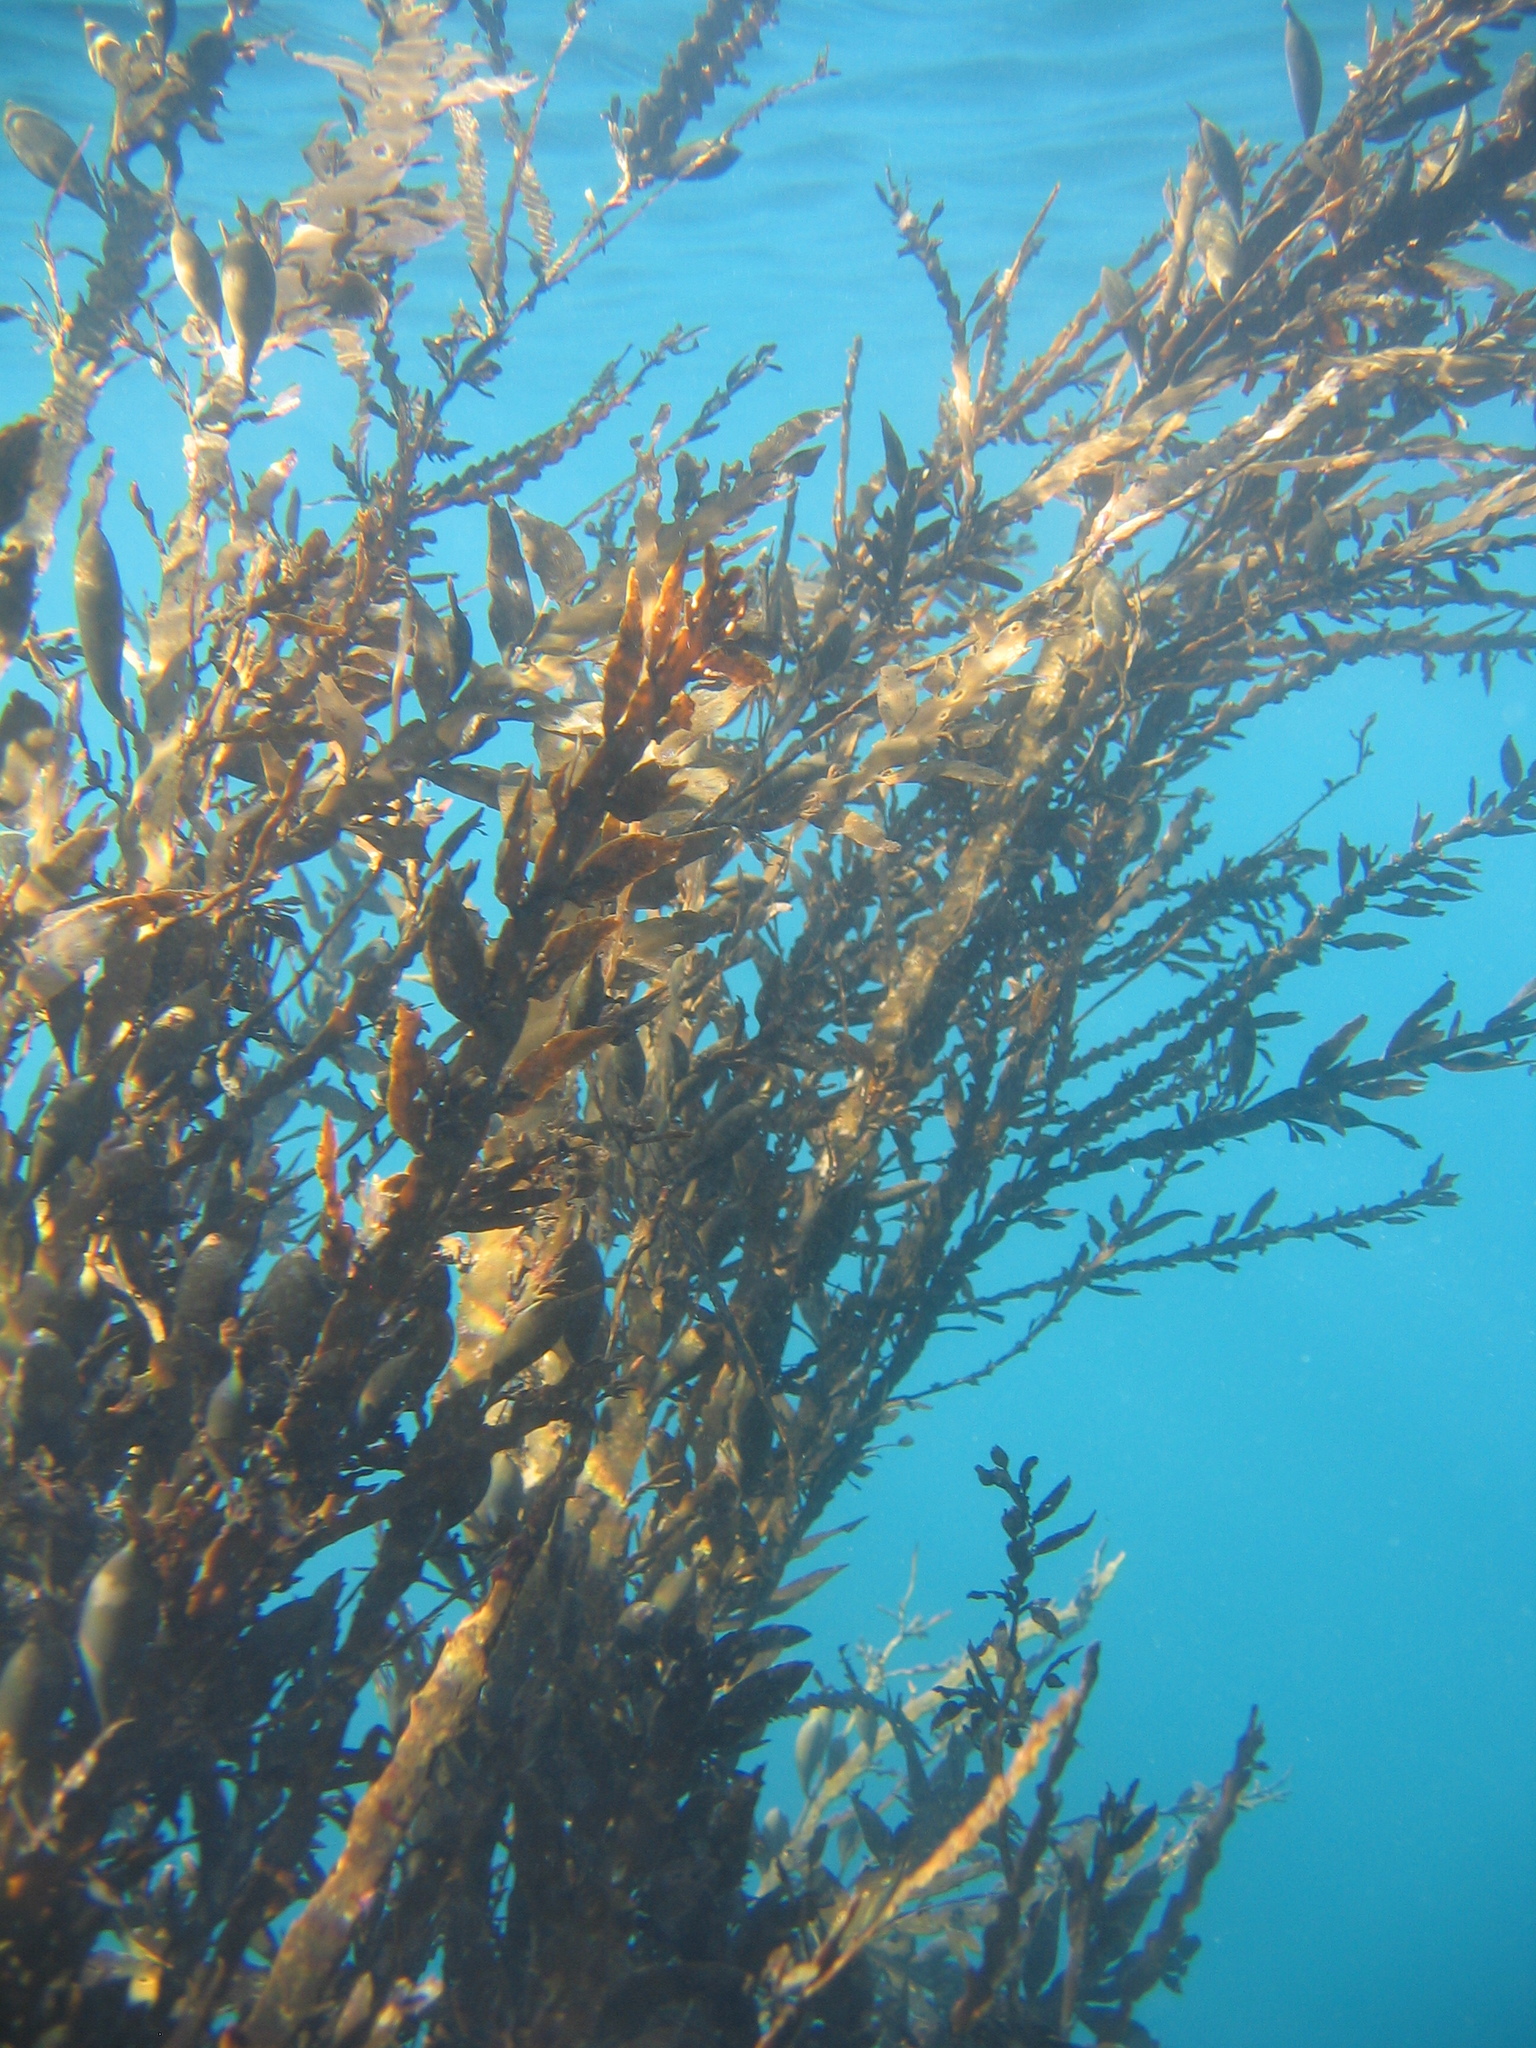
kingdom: Chromista
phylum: Ochrophyta
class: Phaeophyceae
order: Fucales
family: Sargassaceae
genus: Carpophyllum
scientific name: Carpophyllum maschalocarpum
